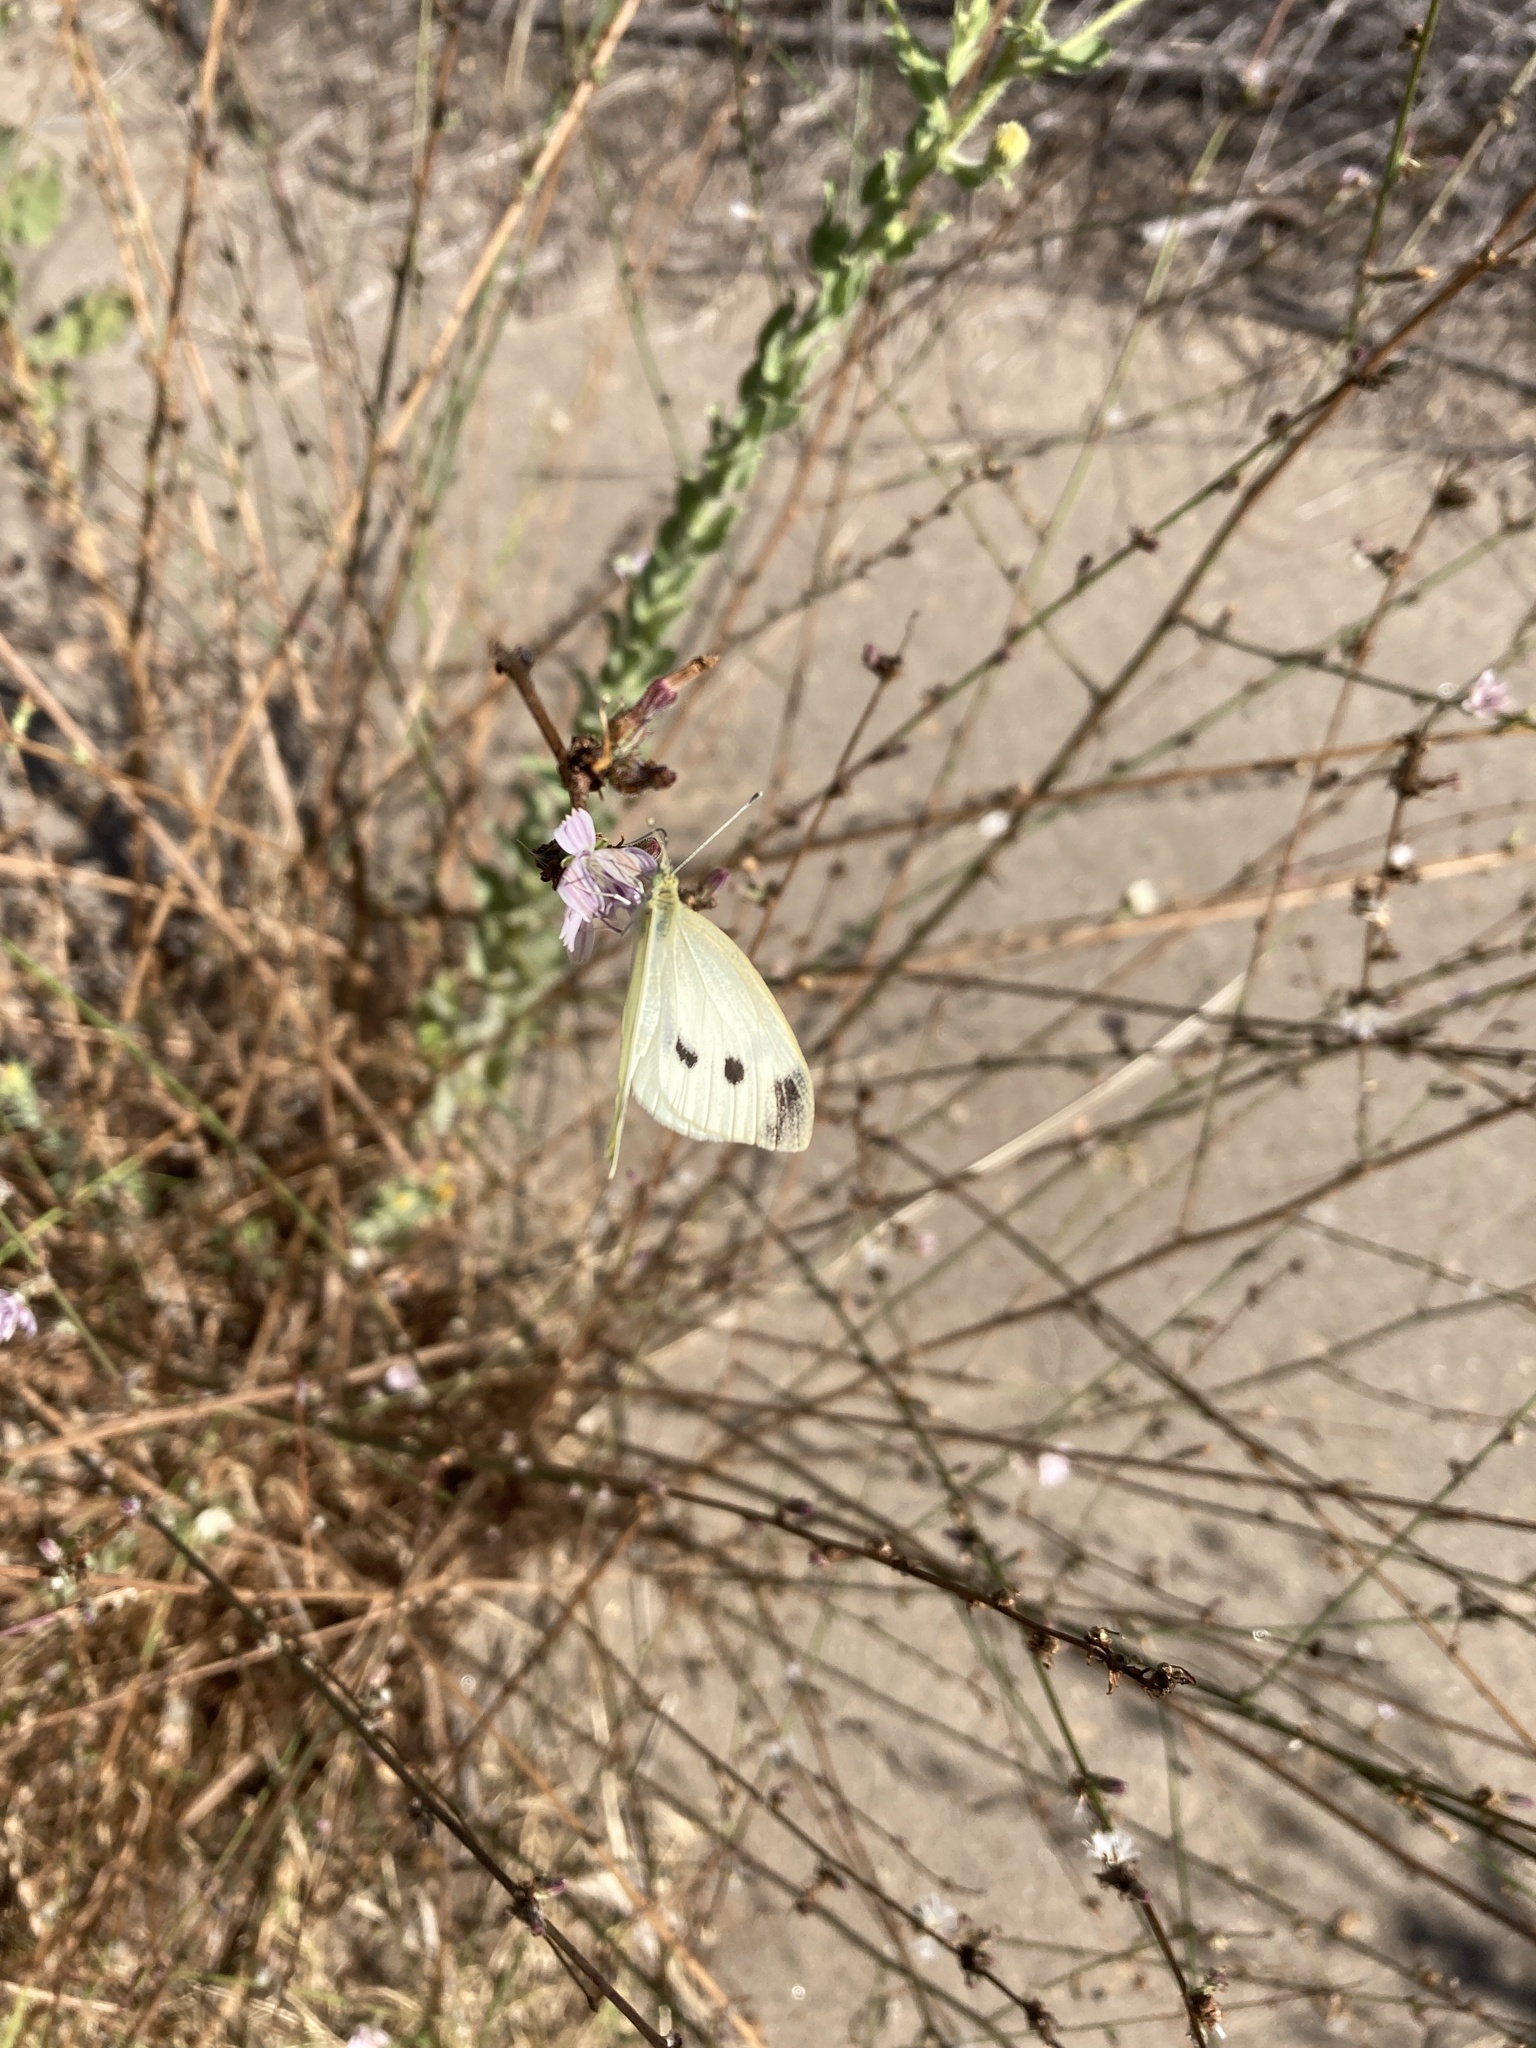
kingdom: Animalia
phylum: Arthropoda
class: Insecta
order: Lepidoptera
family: Pieridae
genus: Pieris
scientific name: Pieris rapae
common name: Small white
